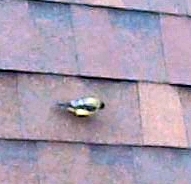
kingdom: Animalia
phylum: Chordata
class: Aves
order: Passeriformes
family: Fringillidae
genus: Spinus
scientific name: Spinus psaltria
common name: Lesser goldfinch
